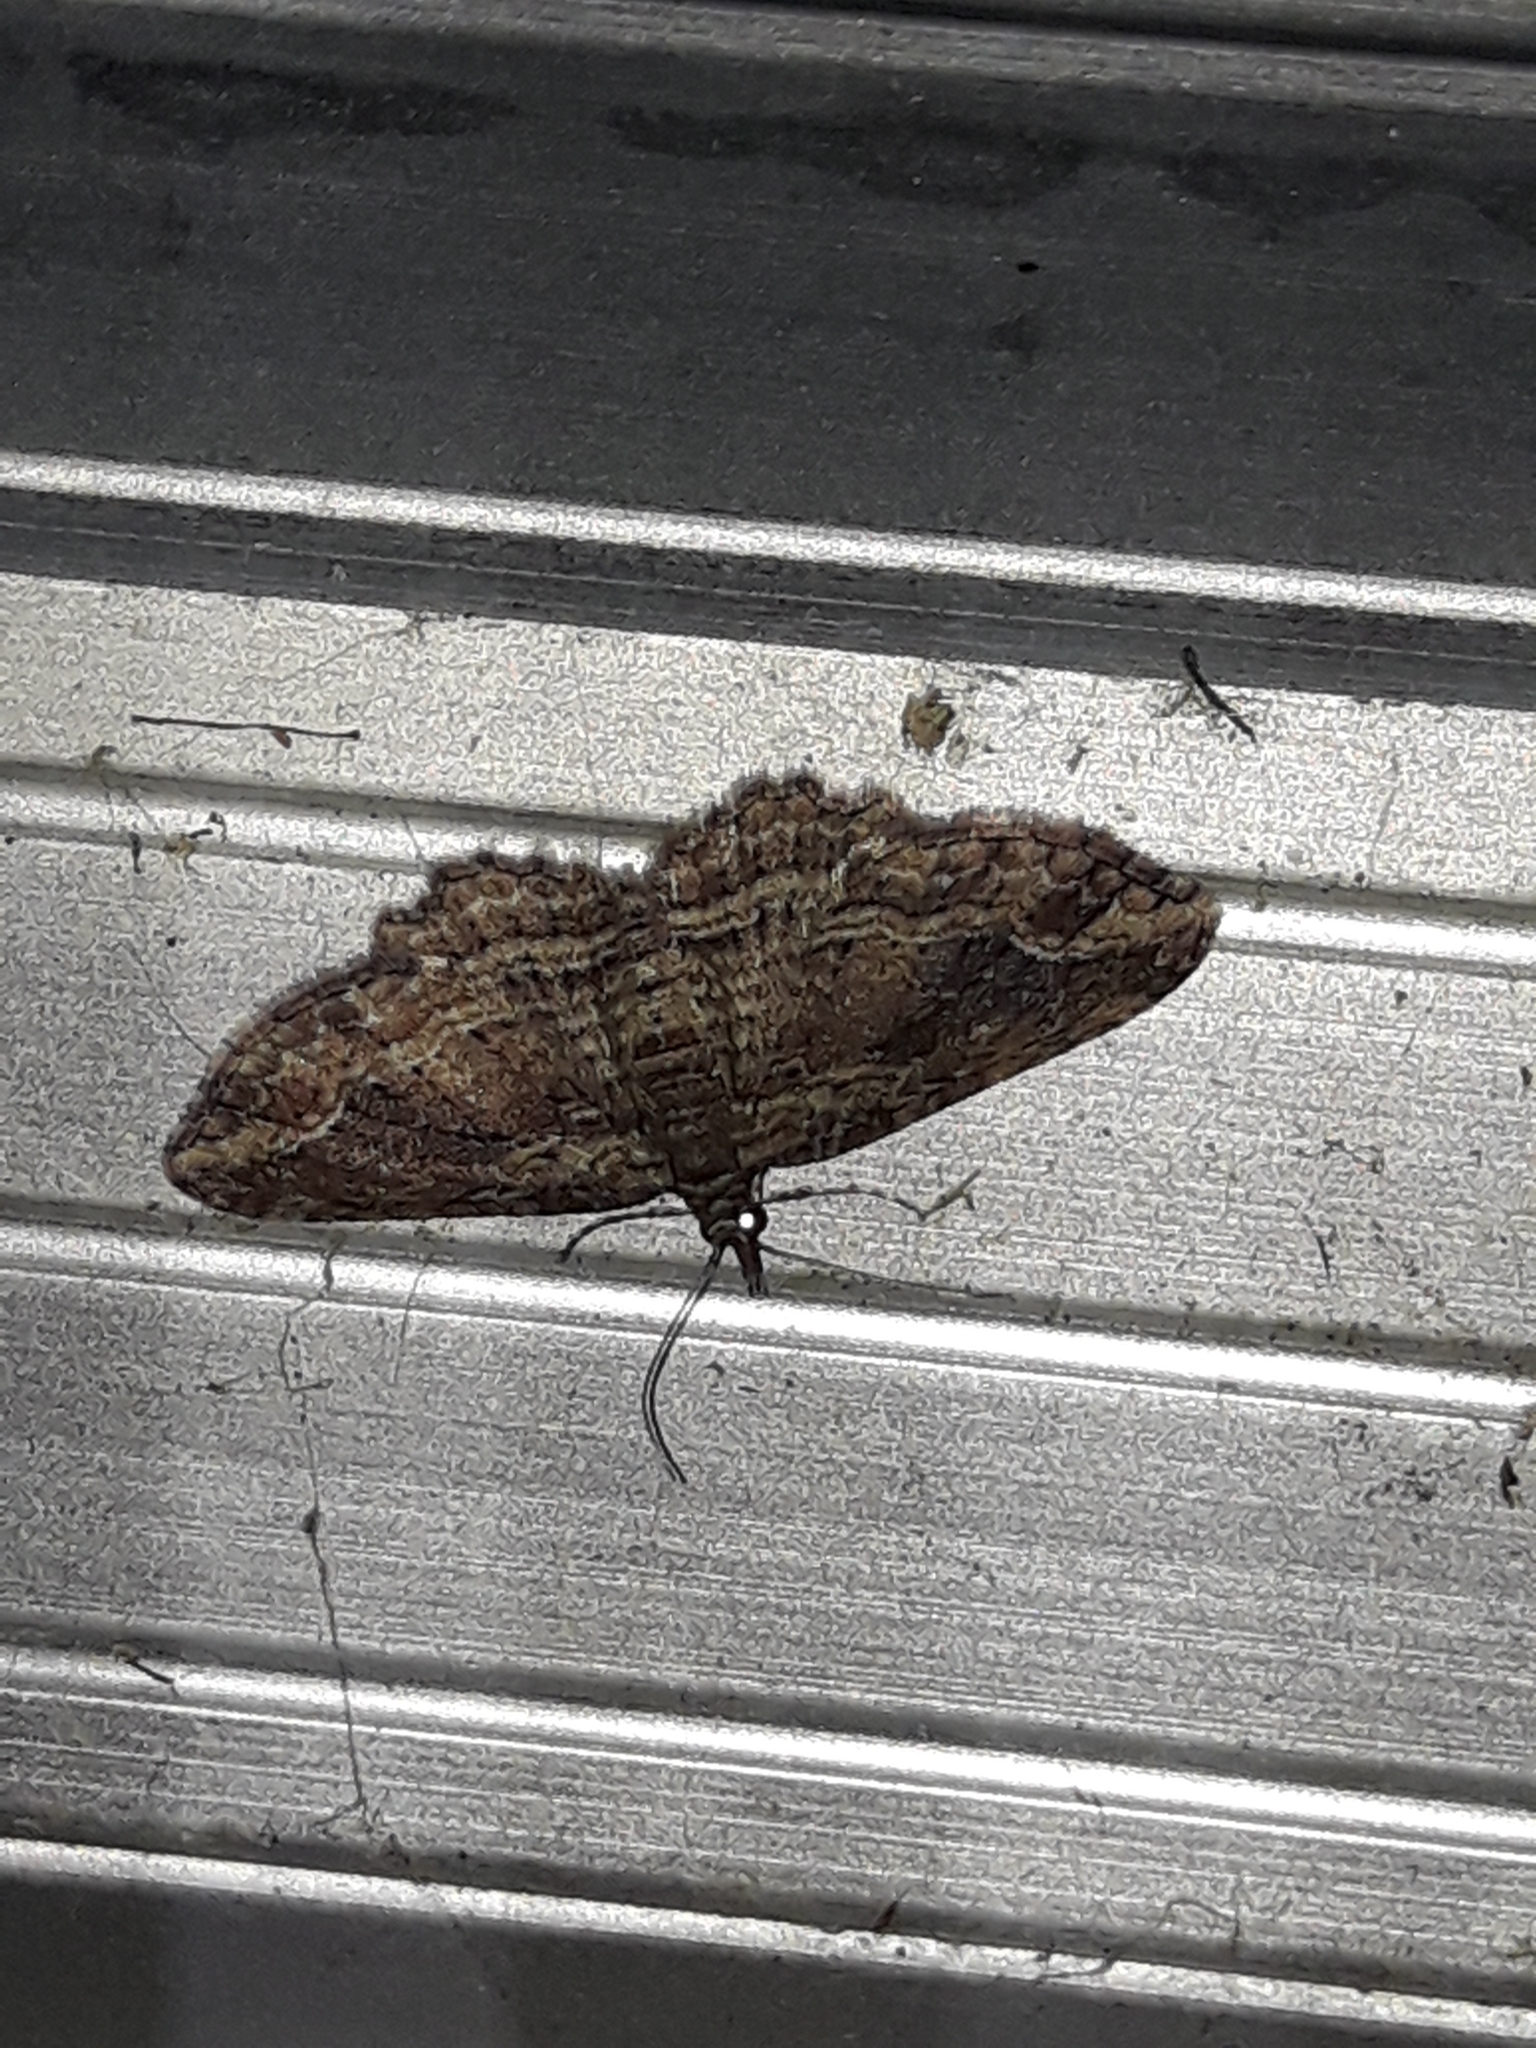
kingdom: Animalia
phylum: Arthropoda
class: Insecta
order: Lepidoptera
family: Geometridae
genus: Chloroclystis
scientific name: Chloroclystis filata
